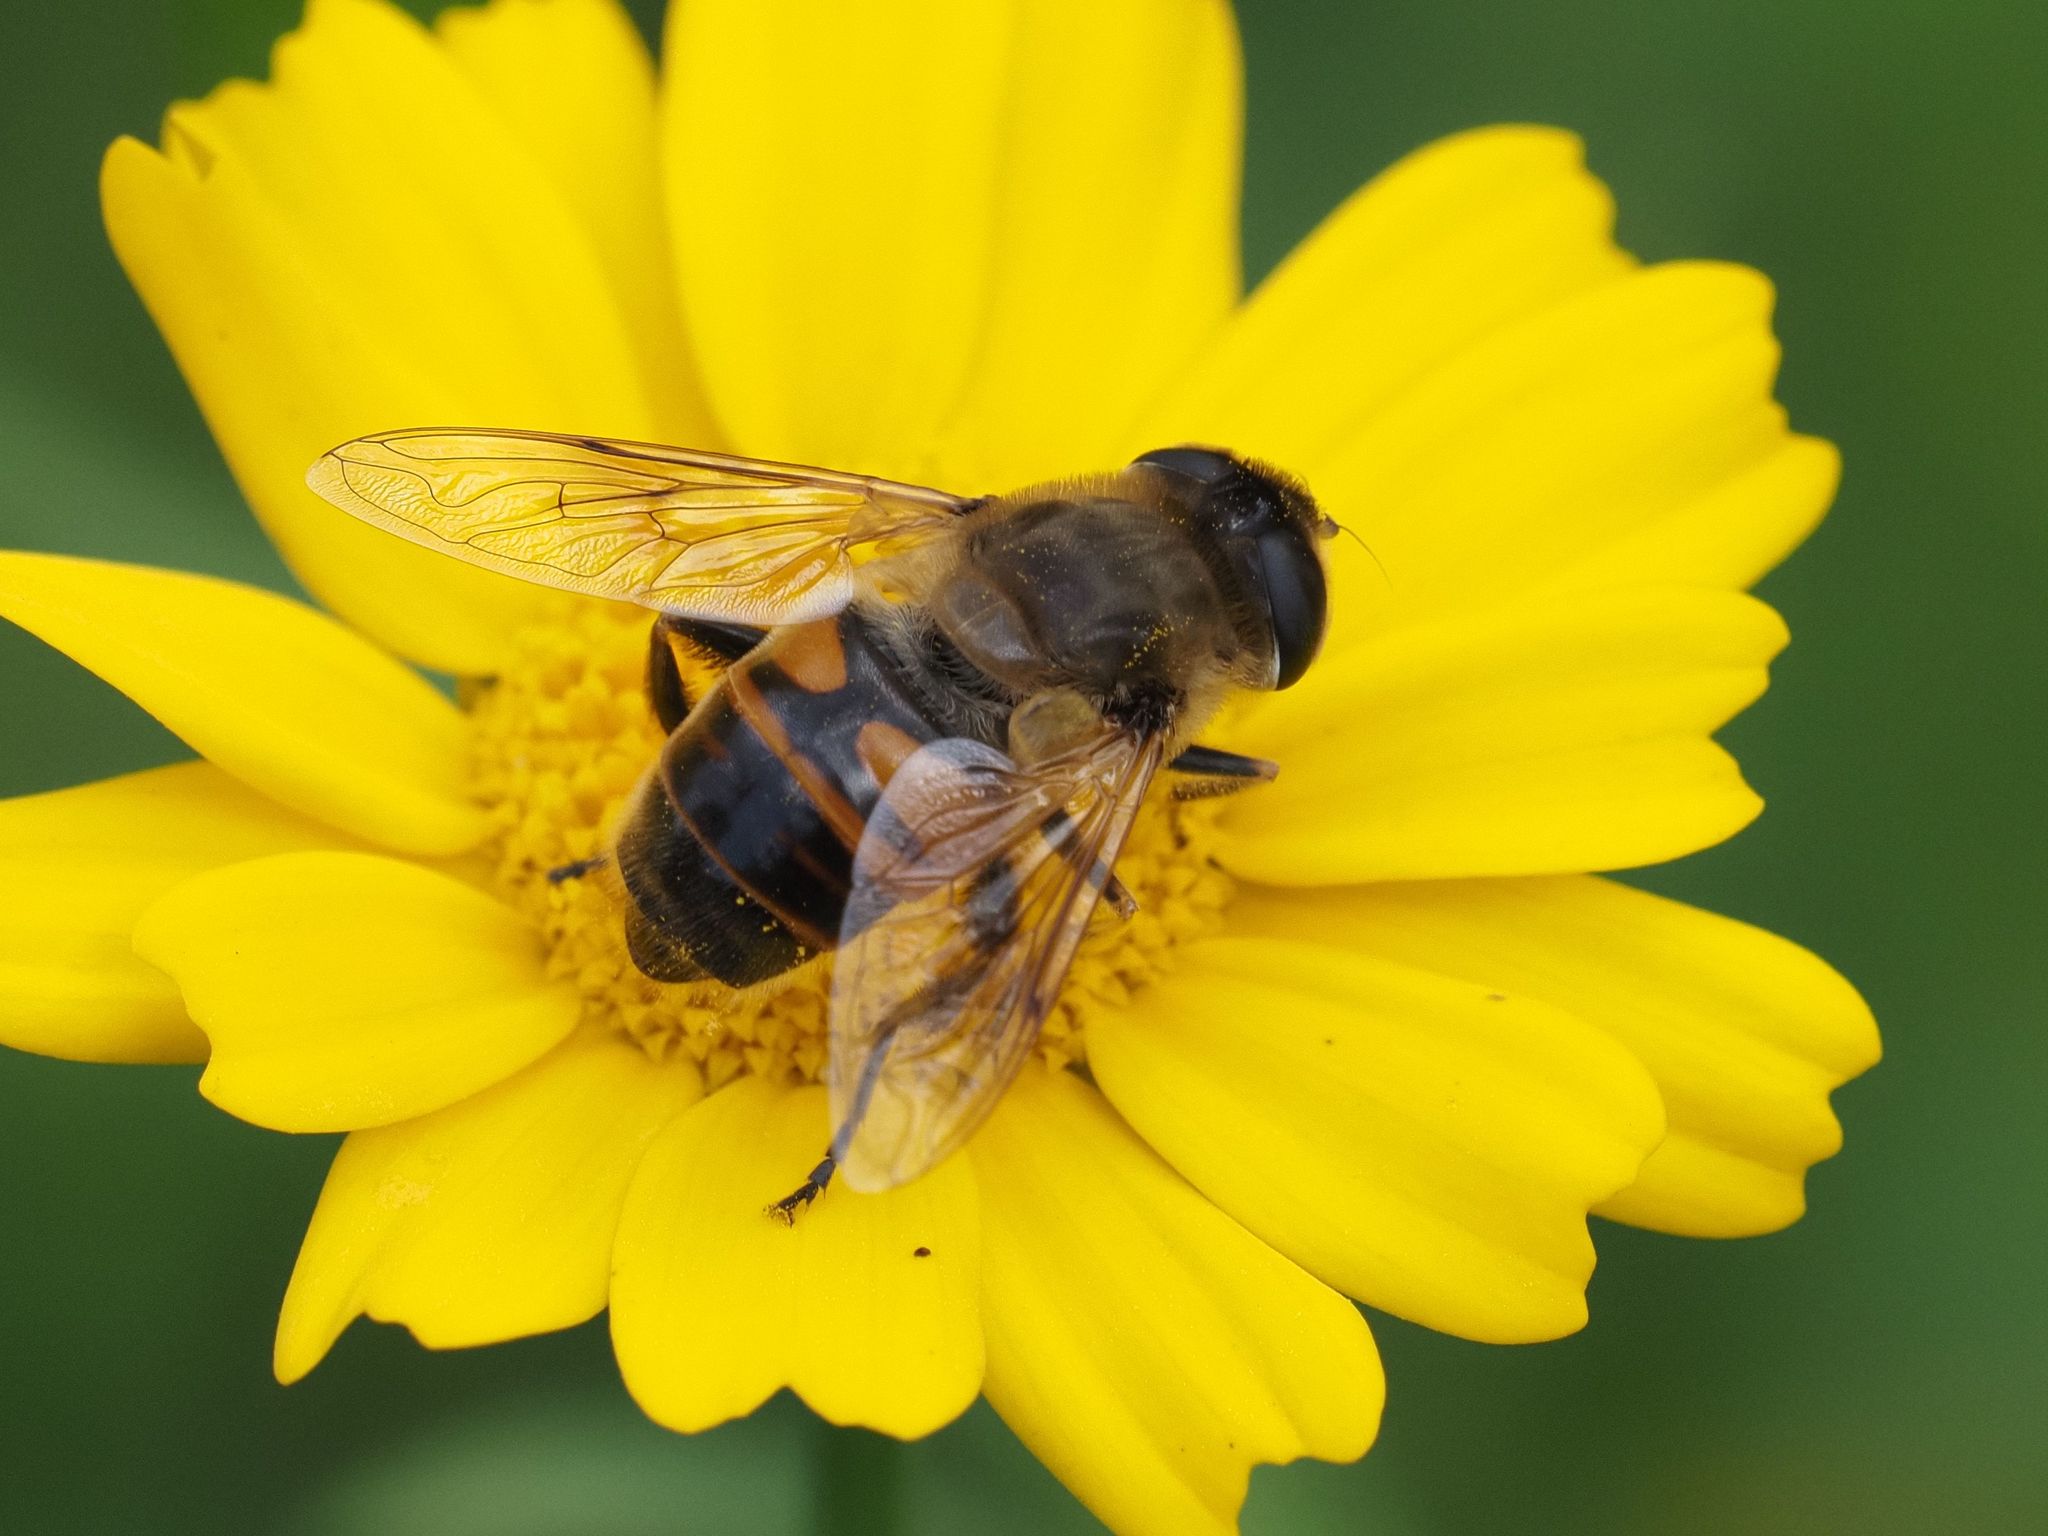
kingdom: Animalia
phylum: Arthropoda
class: Insecta
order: Diptera
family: Syrphidae
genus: Eristalis
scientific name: Eristalis tenax
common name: Drone fly
